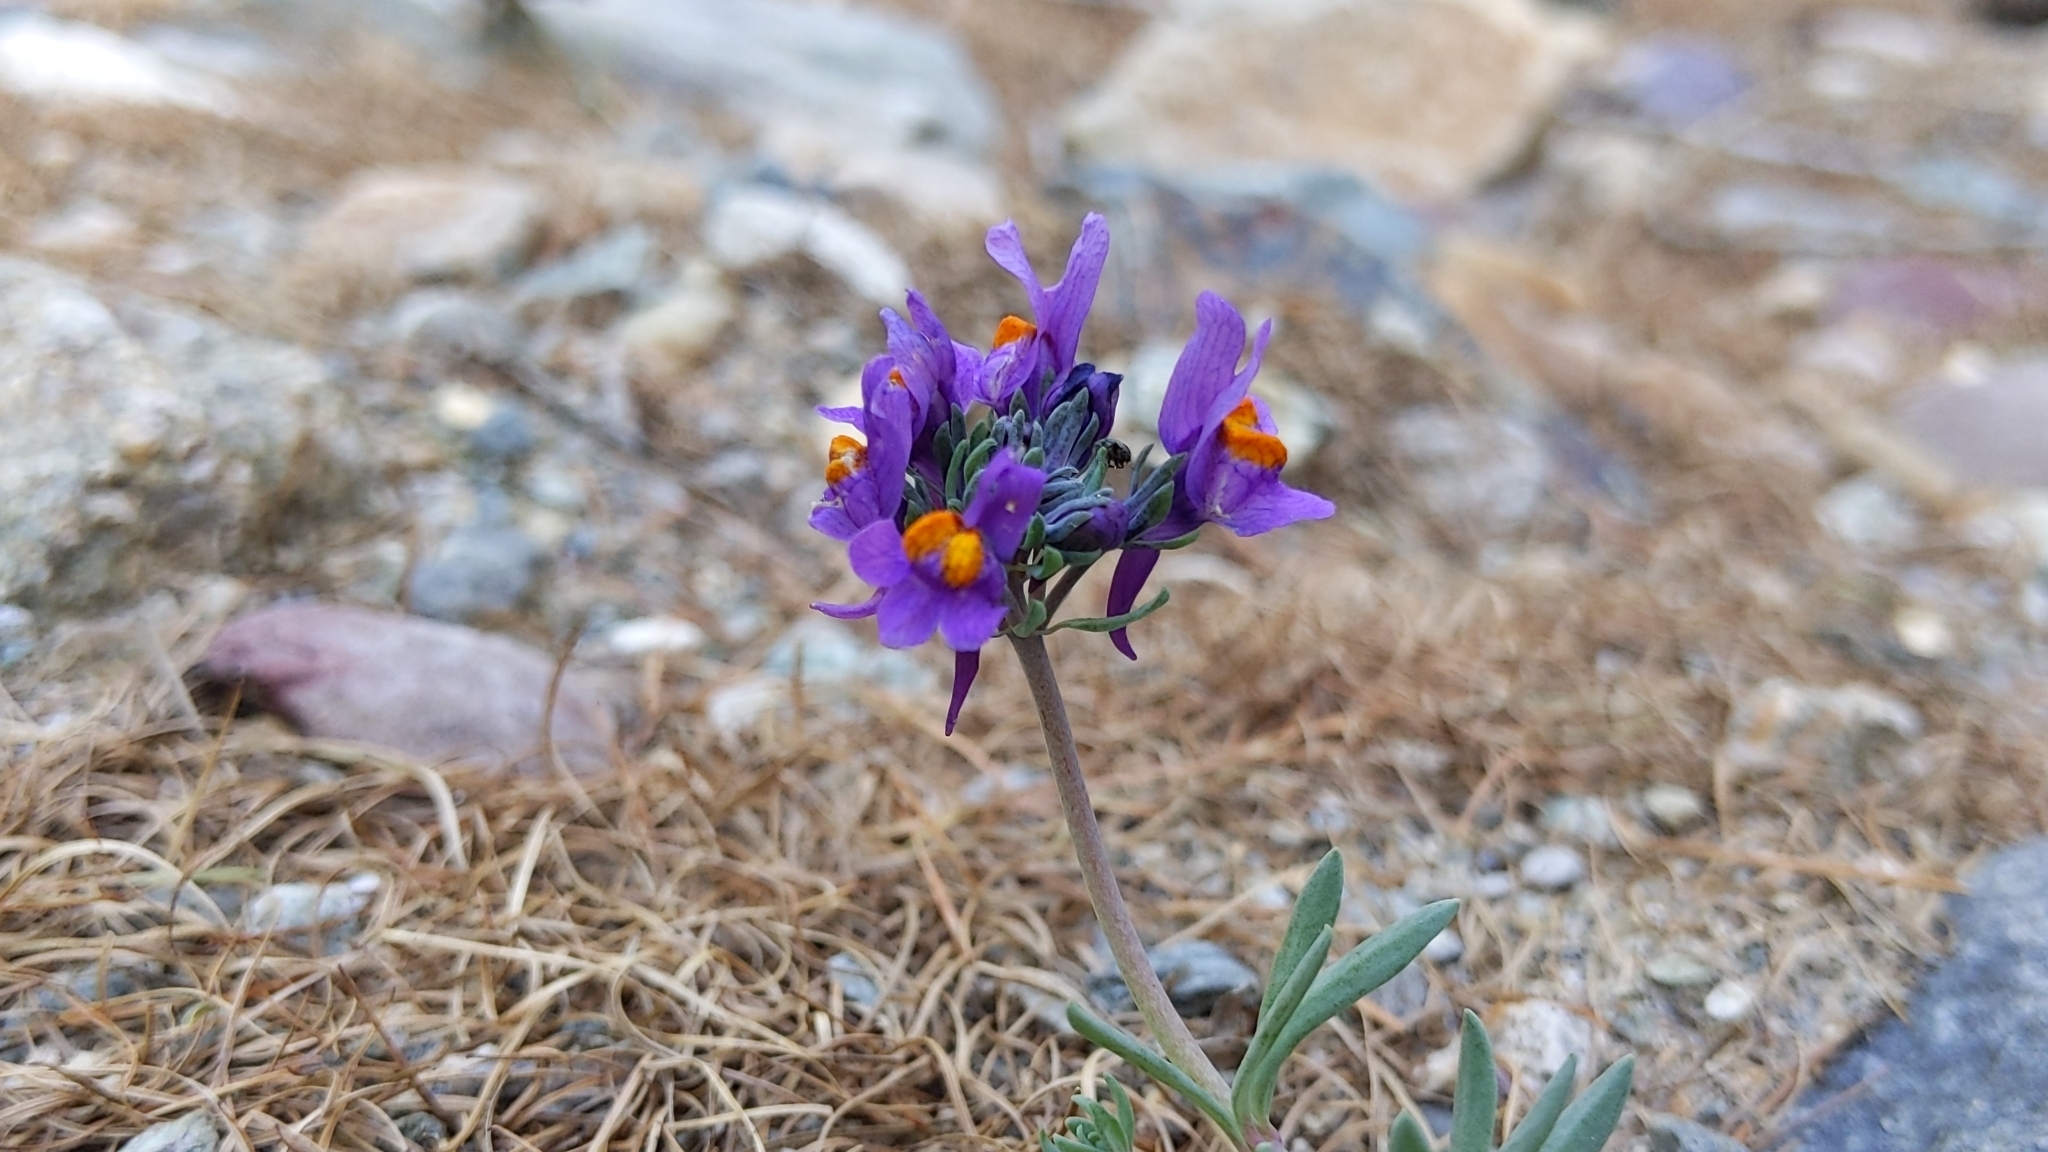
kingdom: Plantae
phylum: Tracheophyta
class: Magnoliopsida
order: Lamiales
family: Plantaginaceae
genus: Linaria
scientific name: Linaria alpina
